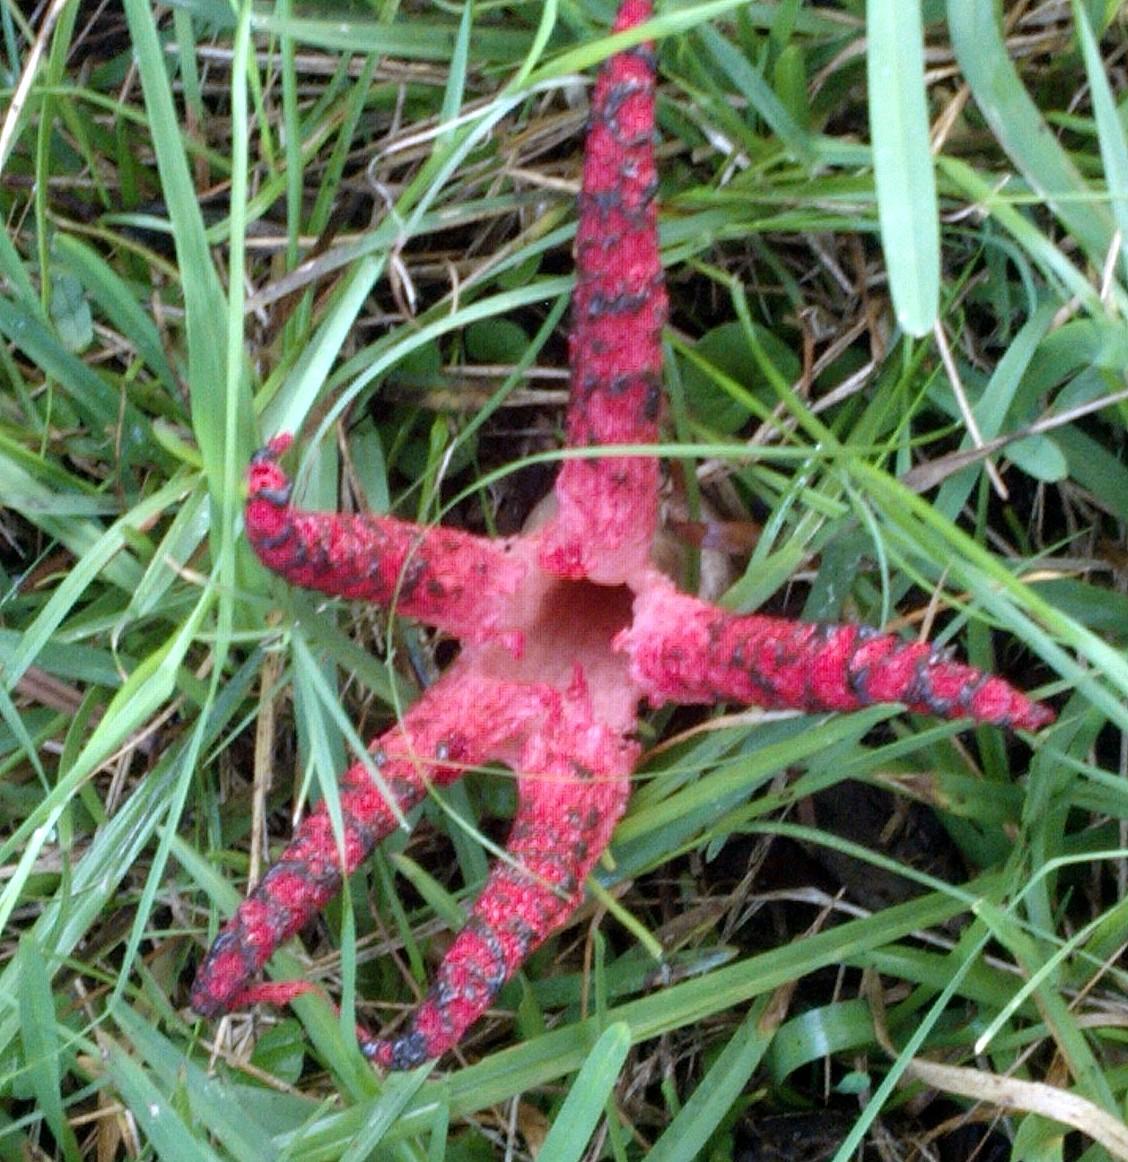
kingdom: Fungi
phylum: Basidiomycota
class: Agaricomycetes
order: Phallales
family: Phallaceae
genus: Clathrus
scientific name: Clathrus archeri
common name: Devil's fingers
